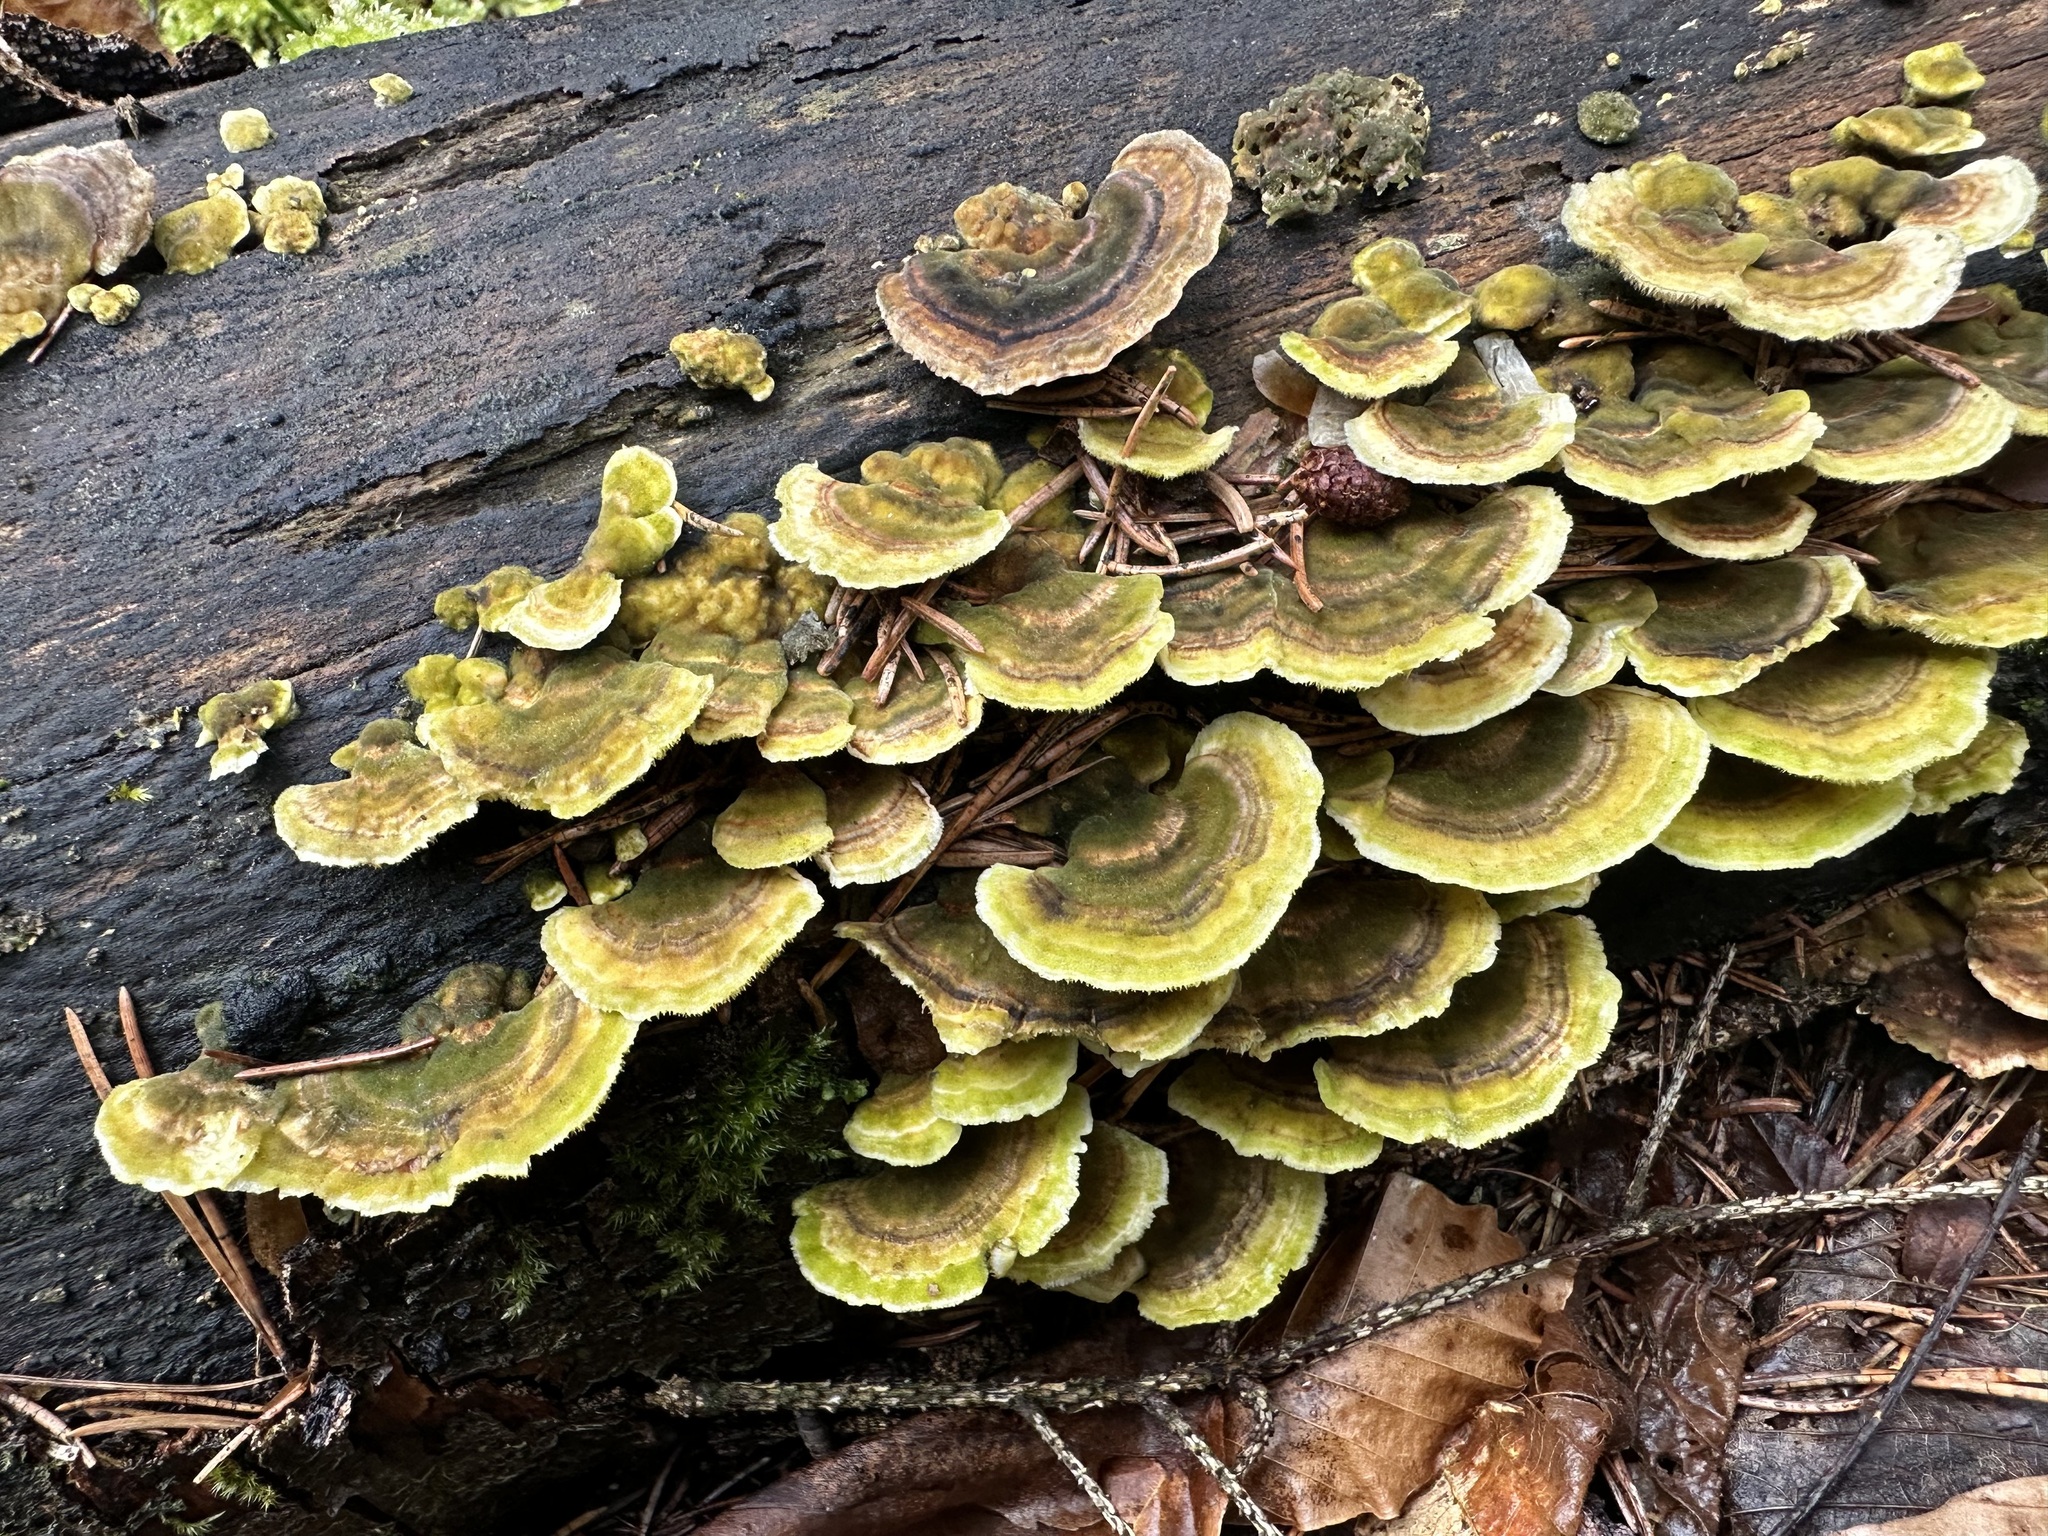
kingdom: Fungi
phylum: Basidiomycota
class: Agaricomycetes
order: Polyporales
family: Polyporaceae
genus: Trametes
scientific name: Trametes versicolor
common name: Turkeytail
